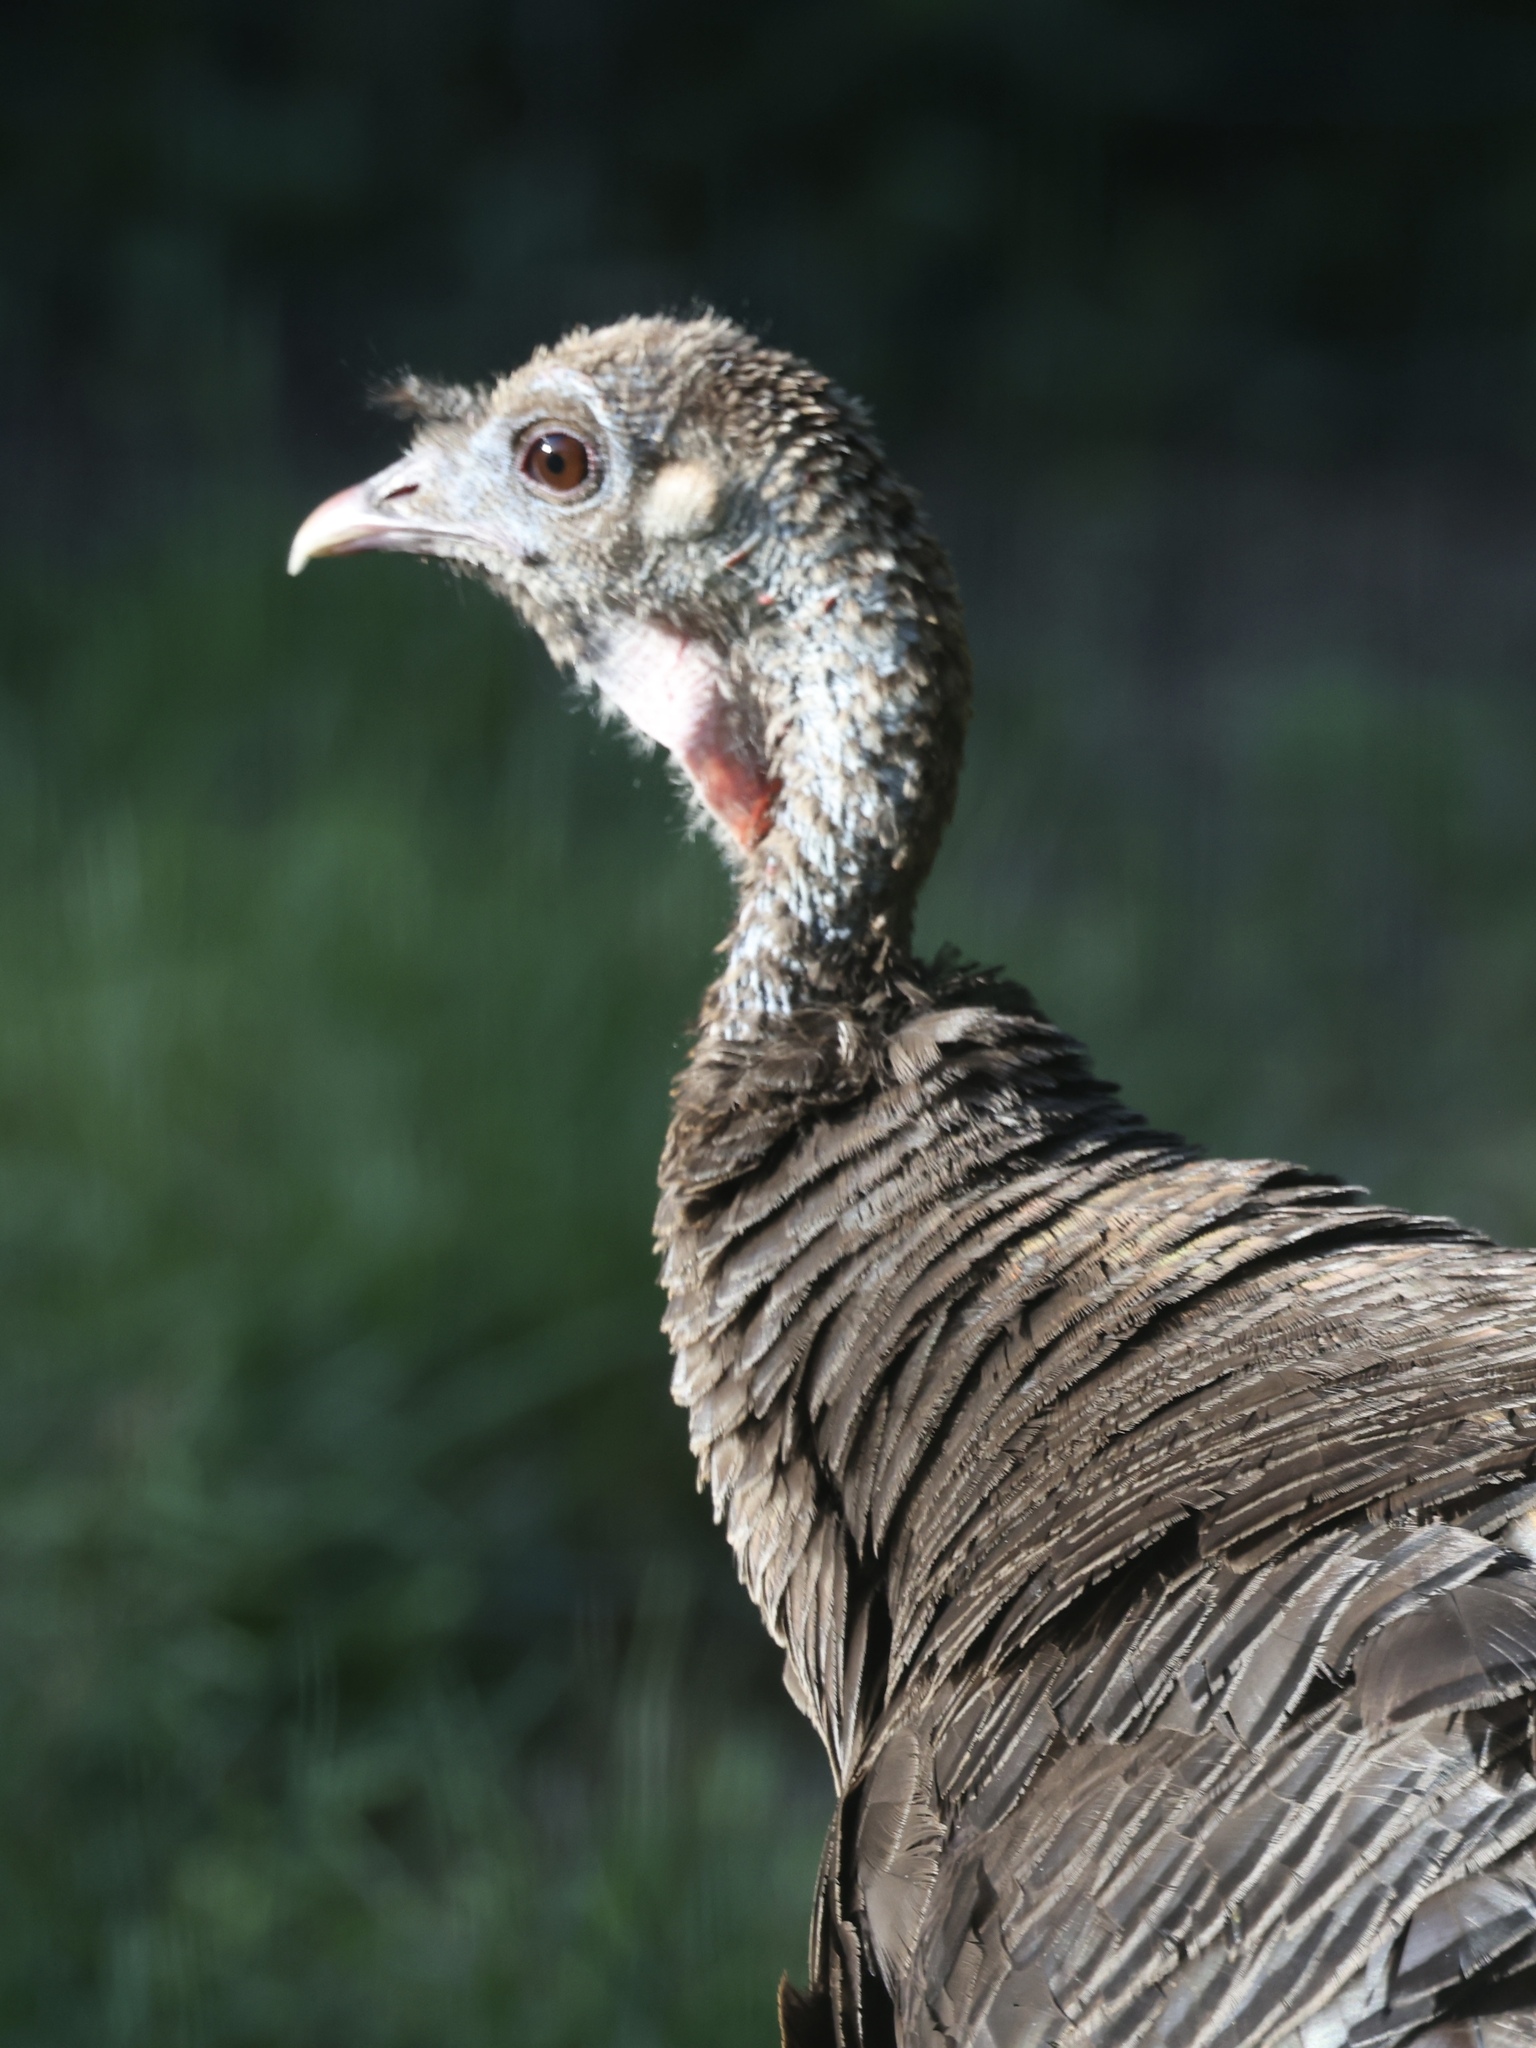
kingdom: Animalia
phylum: Chordata
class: Aves
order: Galliformes
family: Phasianidae
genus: Meleagris
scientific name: Meleagris gallopavo
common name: Wild turkey
